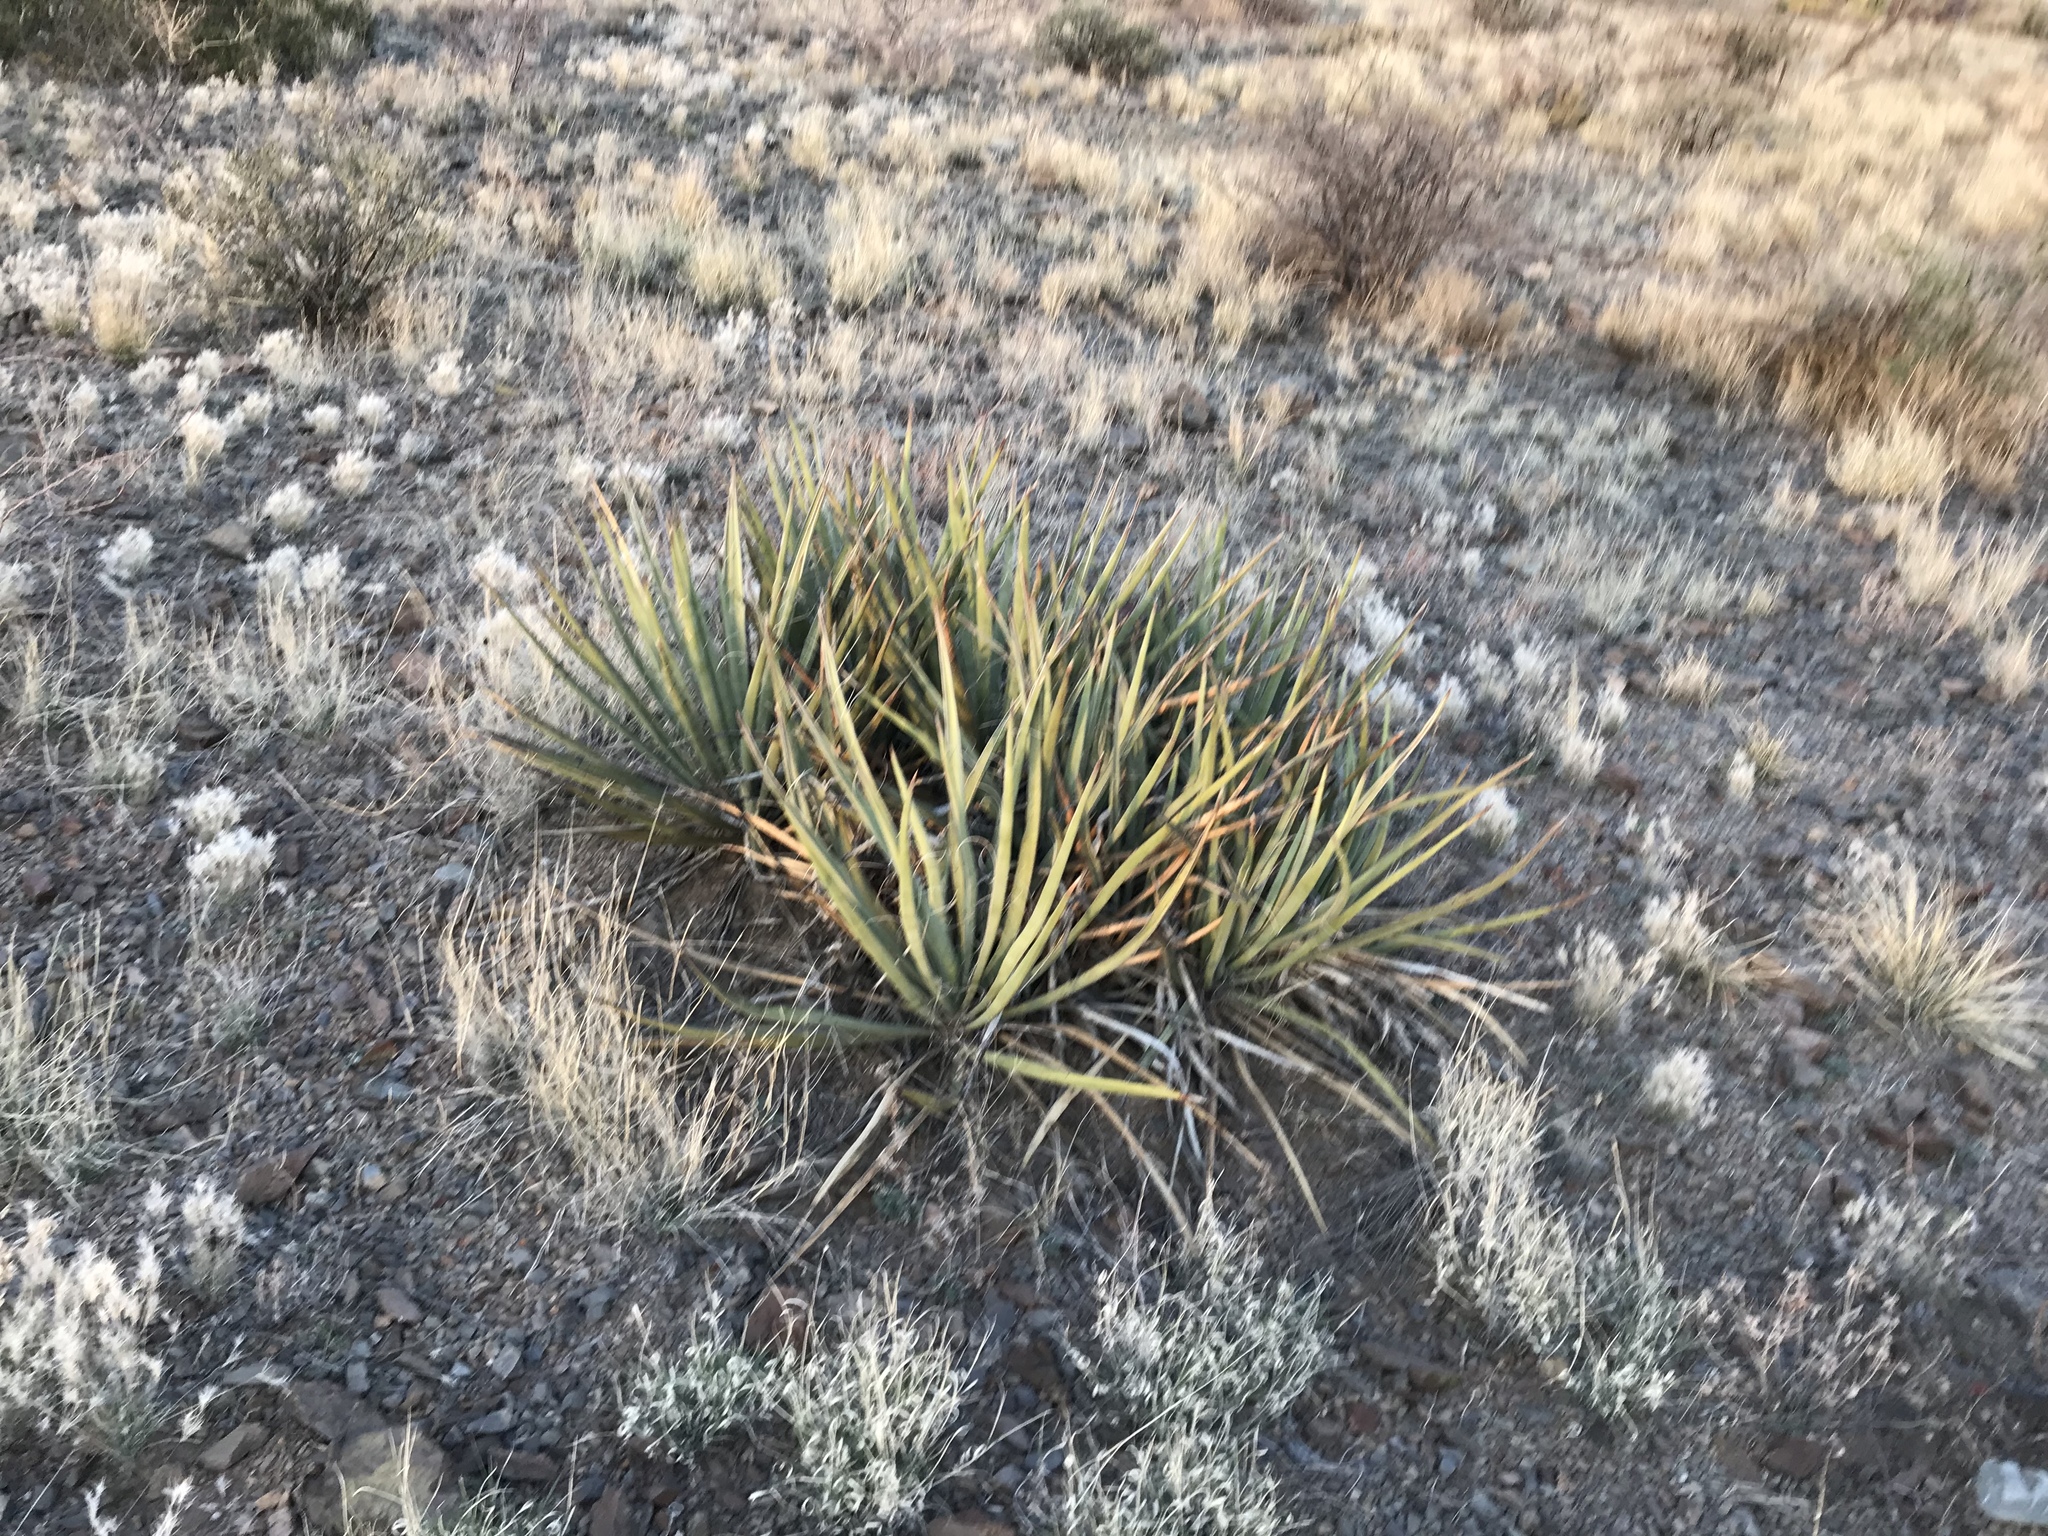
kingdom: Plantae
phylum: Tracheophyta
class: Liliopsida
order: Asparagales
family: Asparagaceae
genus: Yucca
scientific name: Yucca baccata
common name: Banana yucca
